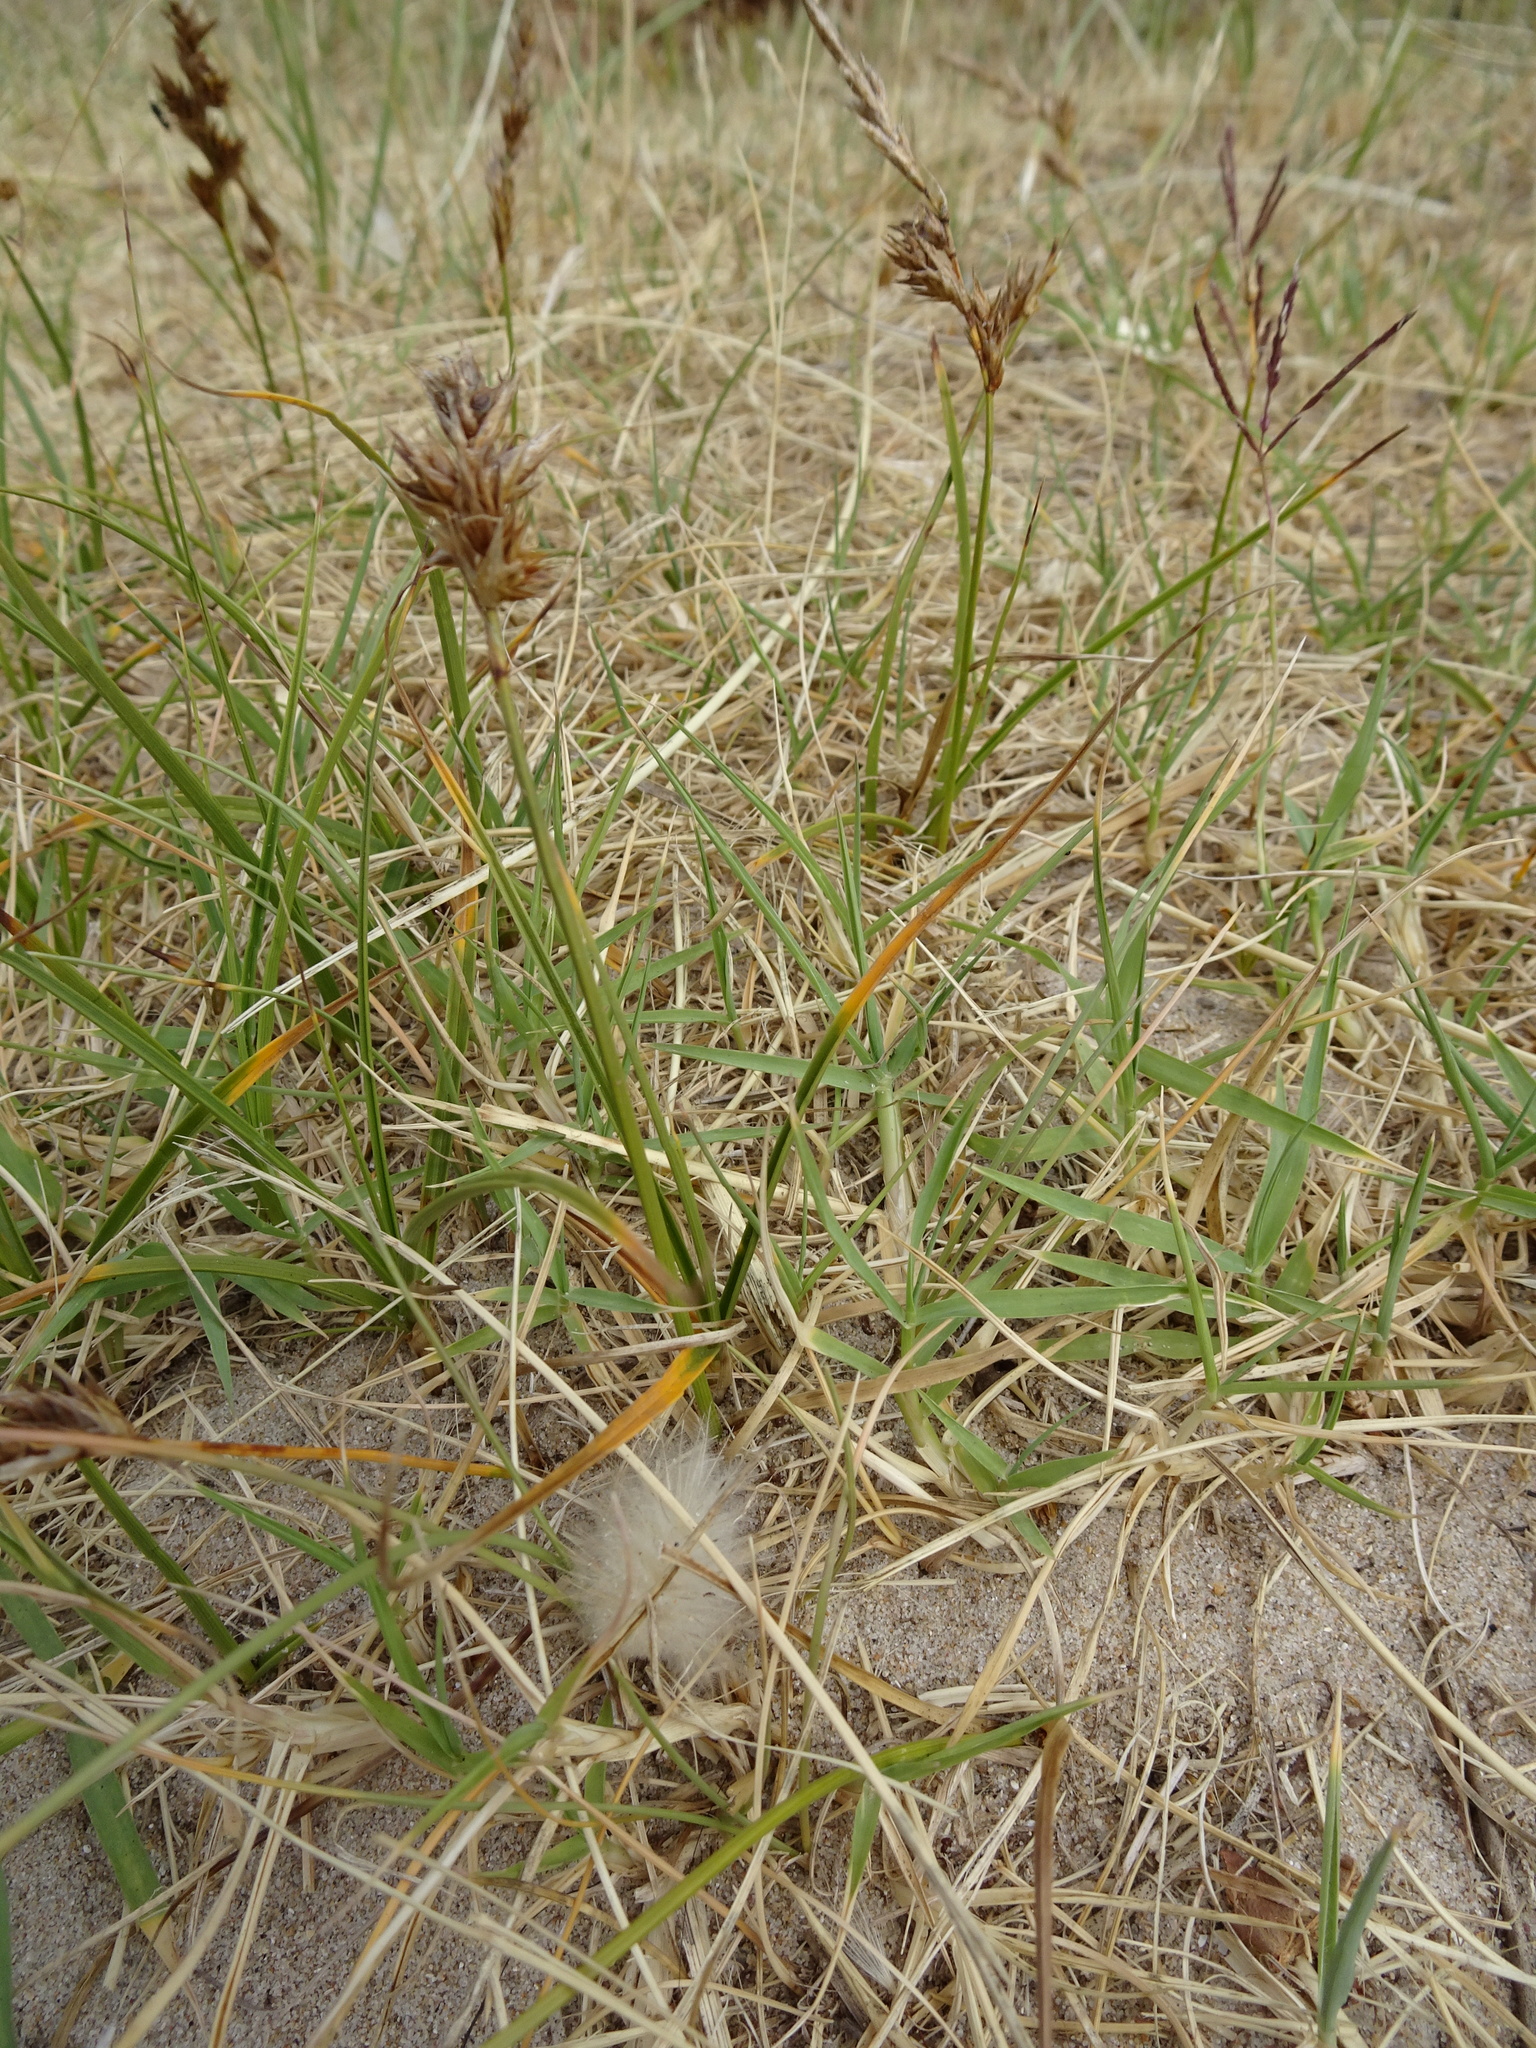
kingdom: Plantae
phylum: Tracheophyta
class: Liliopsida
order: Poales
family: Cyperaceae
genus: Carex
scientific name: Carex arenaria
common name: Sand sedge
